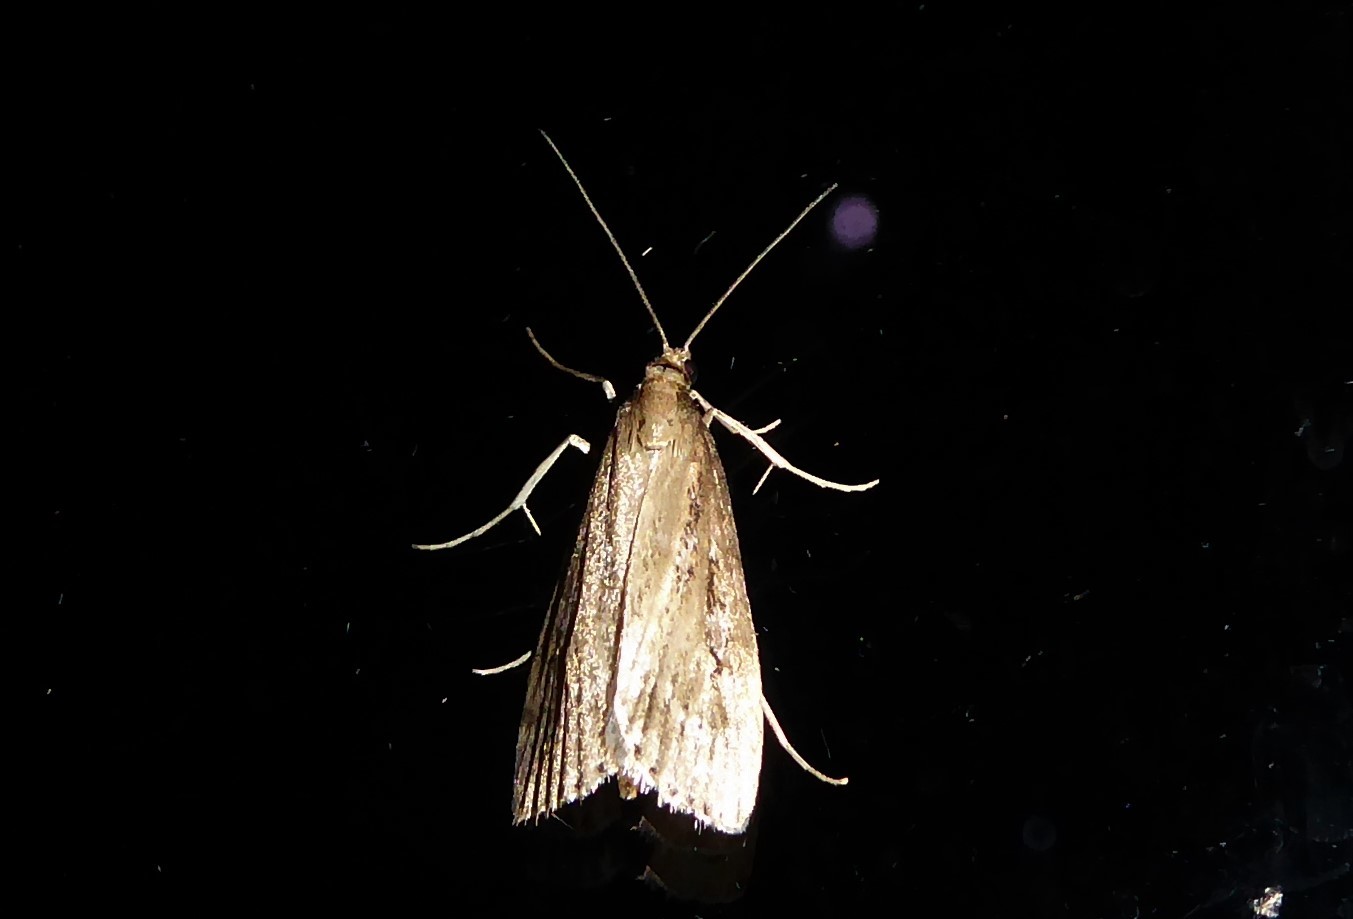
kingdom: Animalia
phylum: Arthropoda
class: Insecta
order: Lepidoptera
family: Crambidae
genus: Eudonia
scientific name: Eudonia octophora
